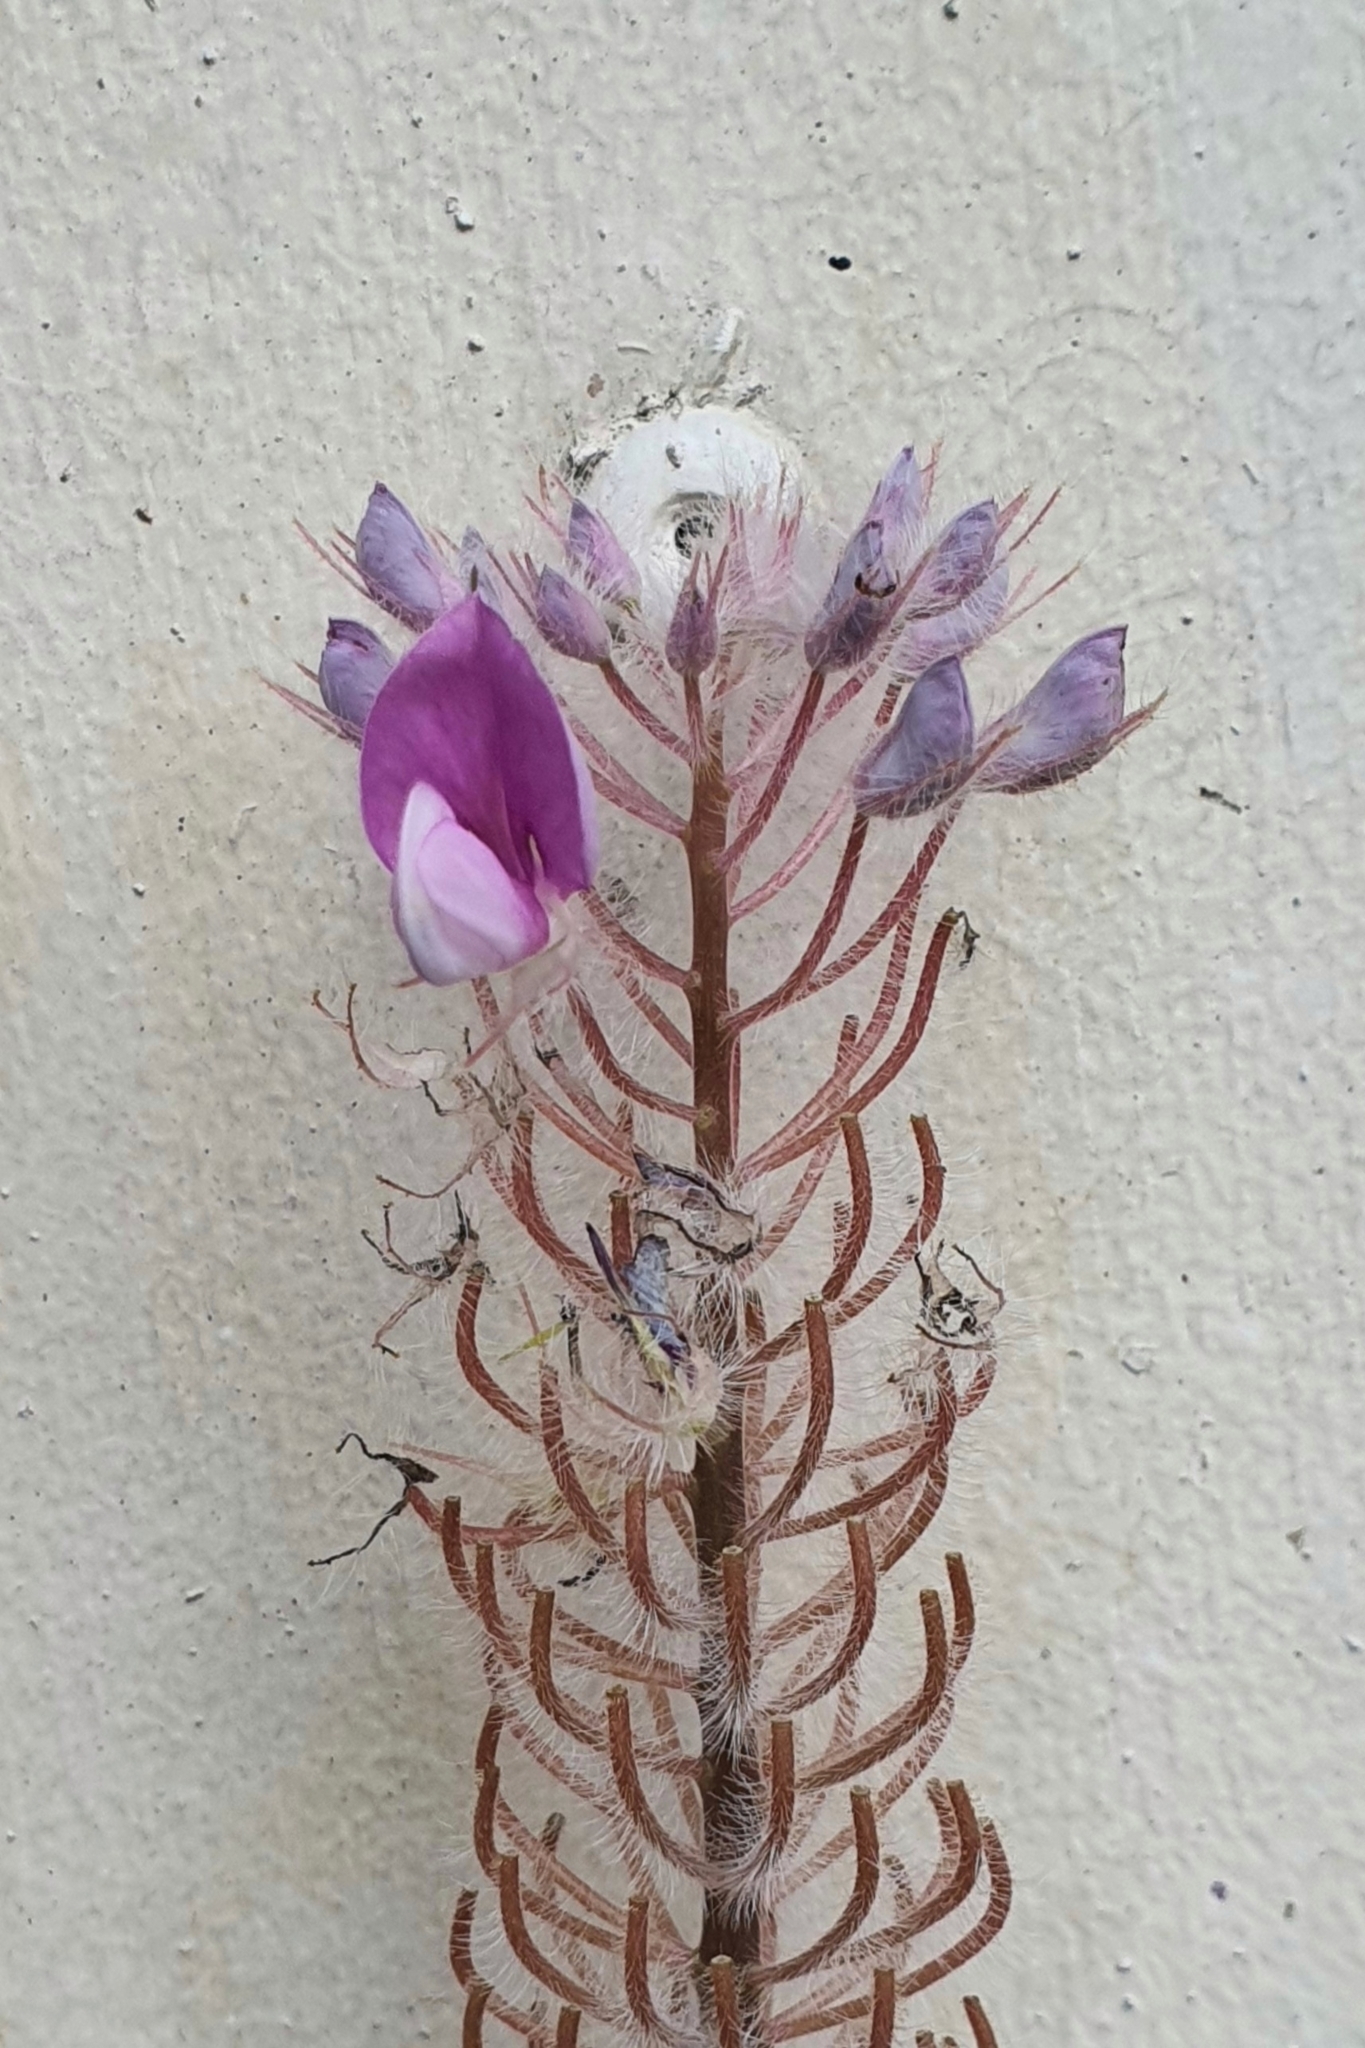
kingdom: Plantae
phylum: Tracheophyta
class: Magnoliopsida
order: Fabales
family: Fabaceae
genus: Uraria
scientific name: Uraria crinita
